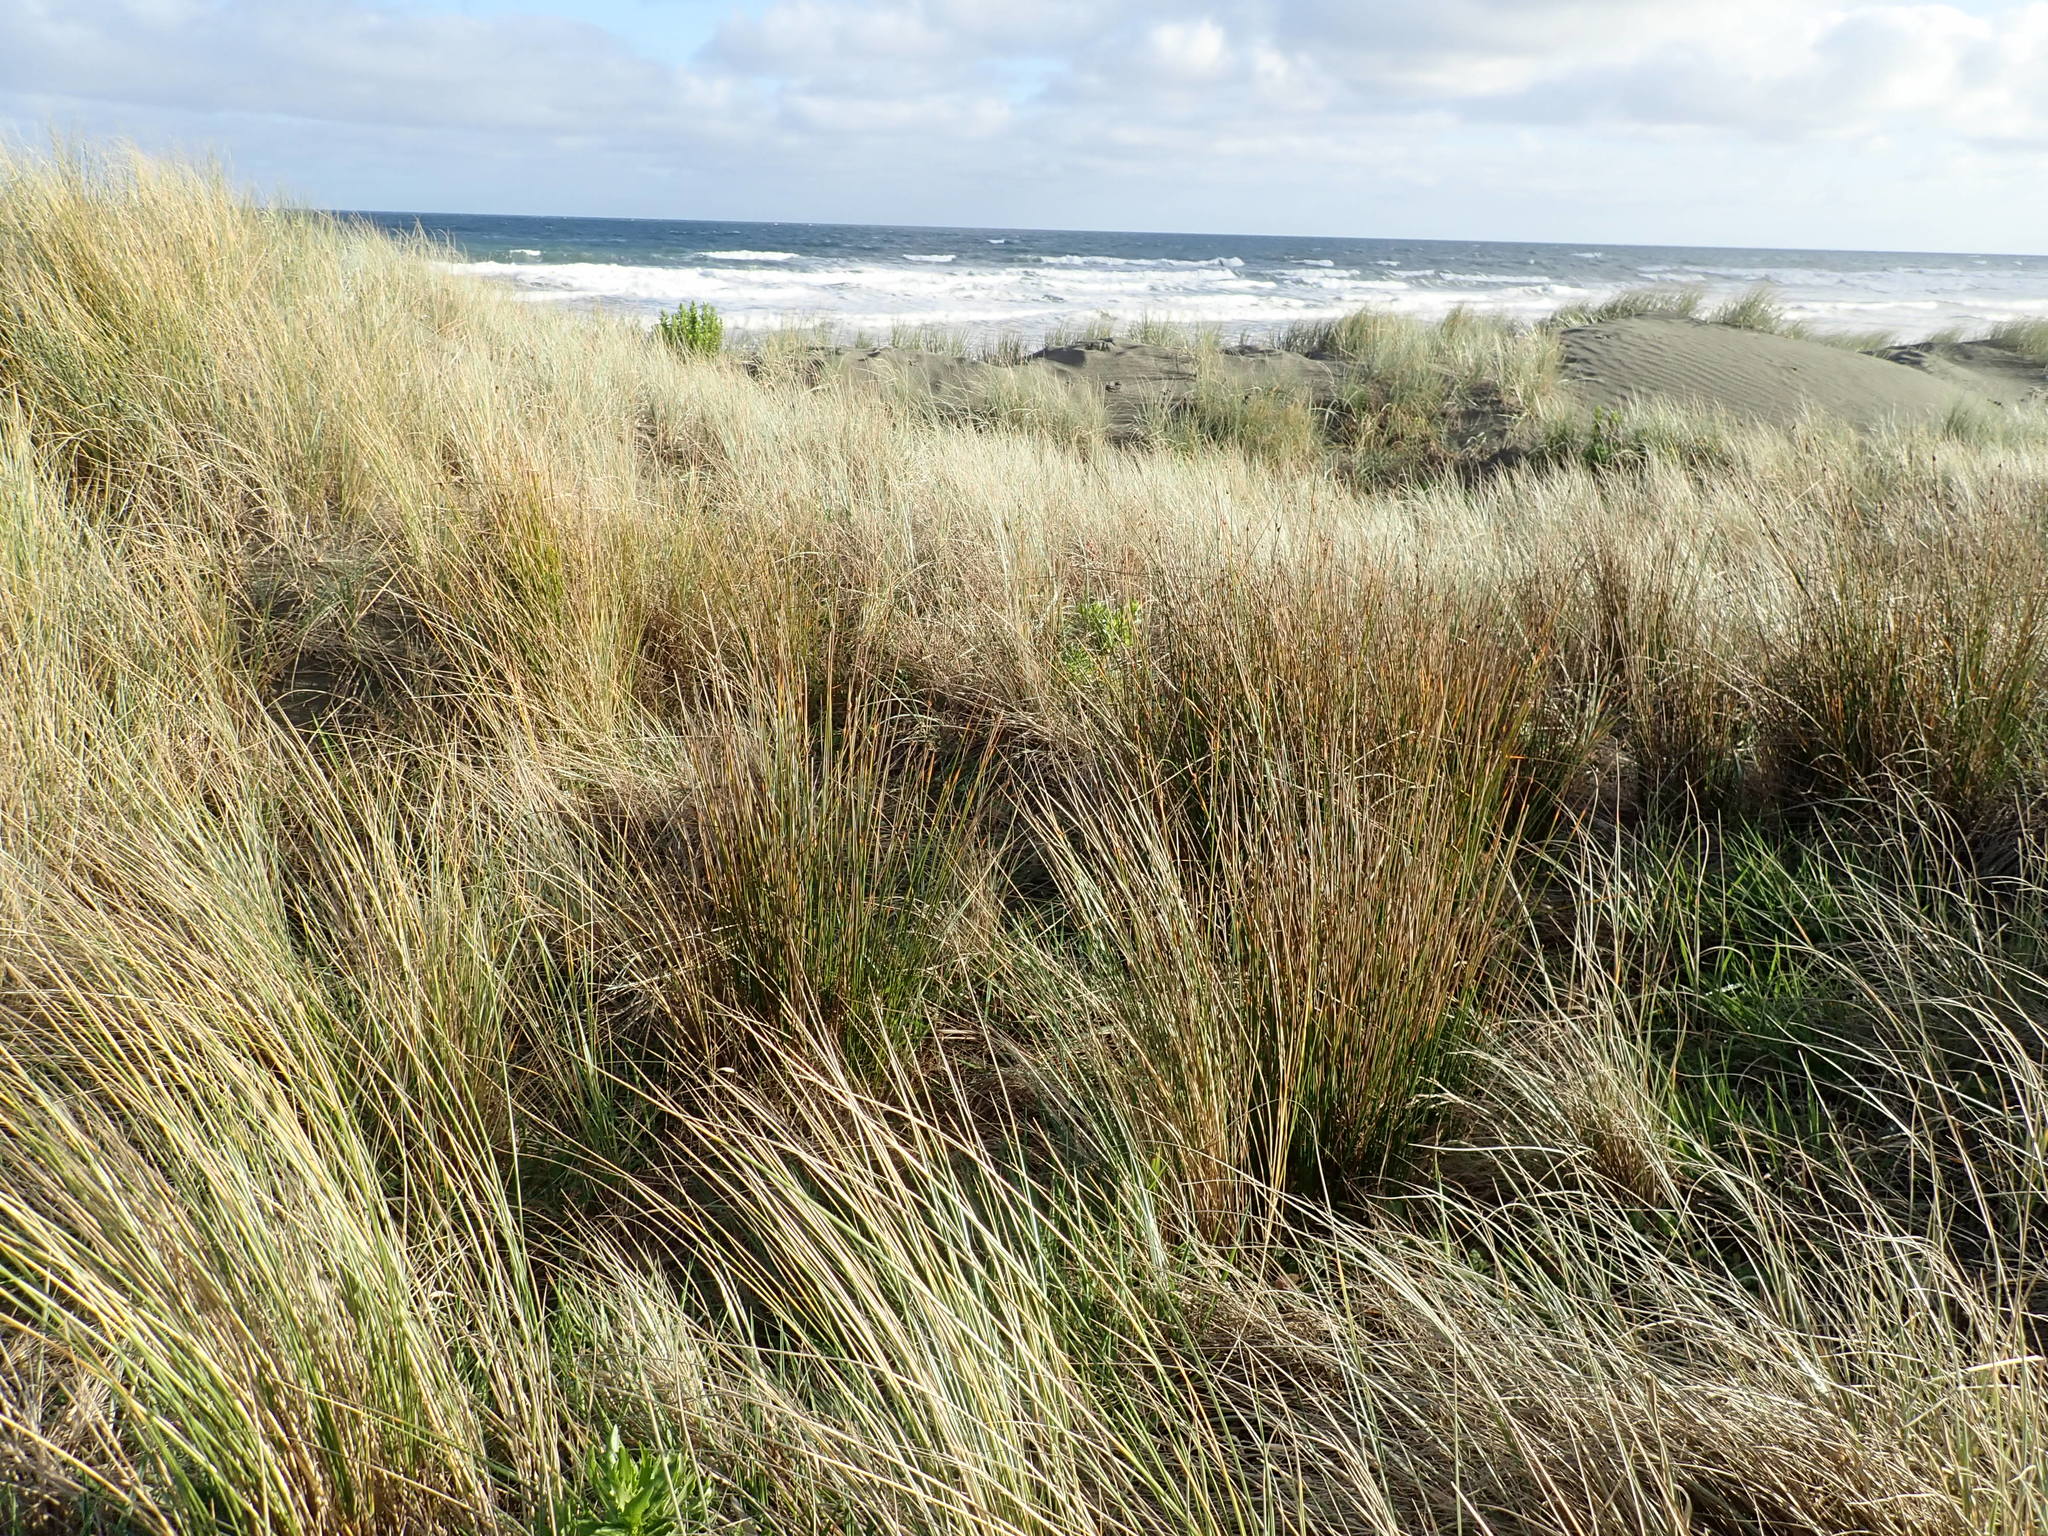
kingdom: Plantae
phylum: Tracheophyta
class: Liliopsida
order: Poales
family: Cyperaceae
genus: Ficinia
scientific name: Ficinia nodosa
